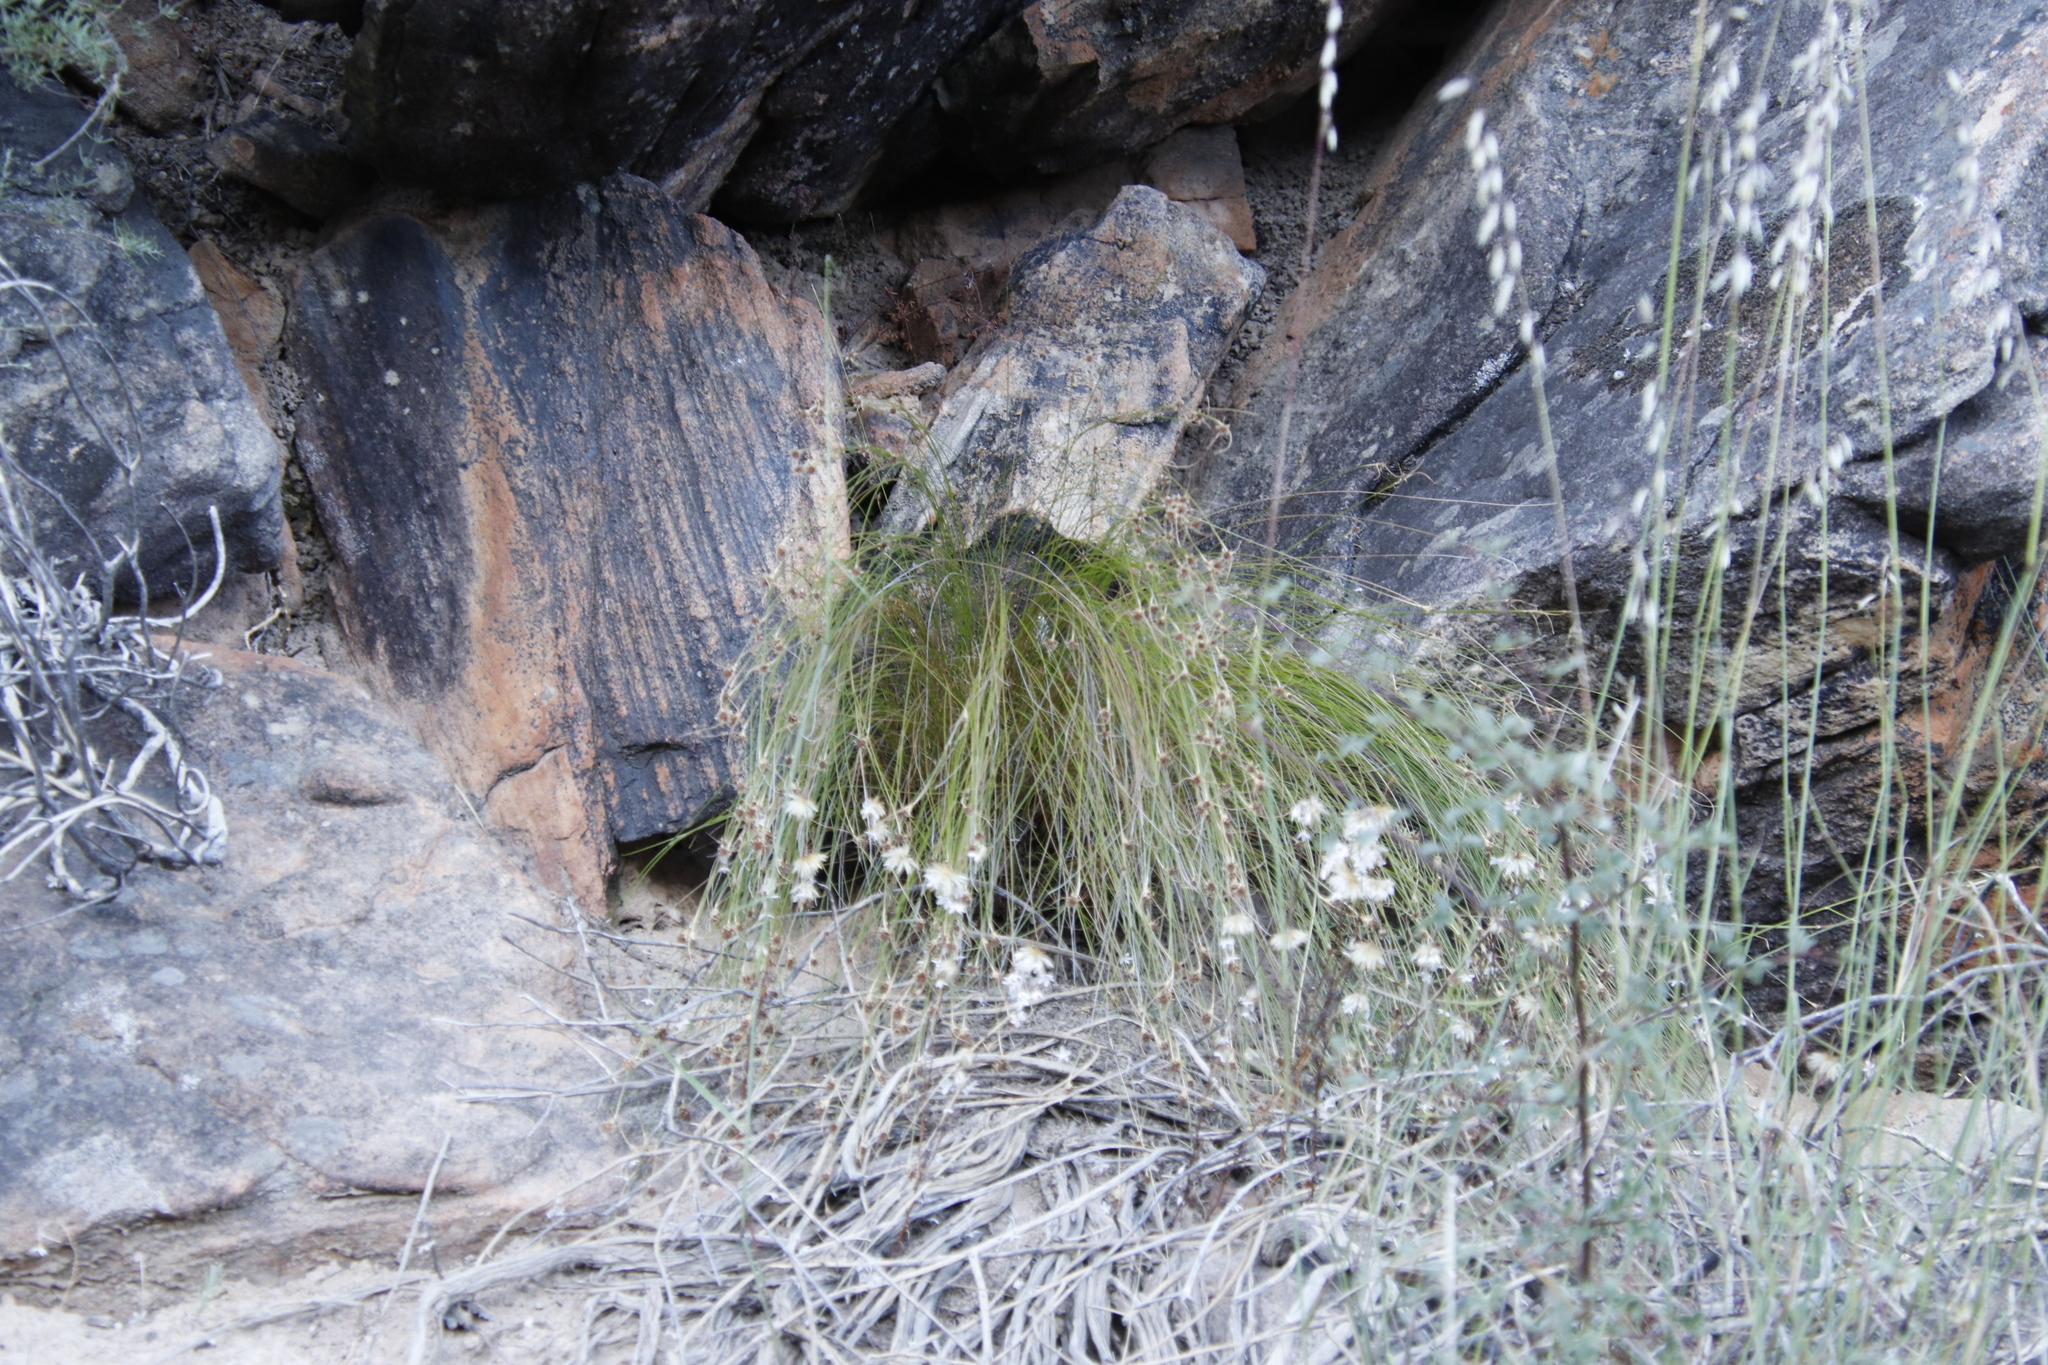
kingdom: Plantae
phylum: Tracheophyta
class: Liliopsida
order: Poales
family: Cyperaceae
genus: Ficinia
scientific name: Ficinia nigrescens
